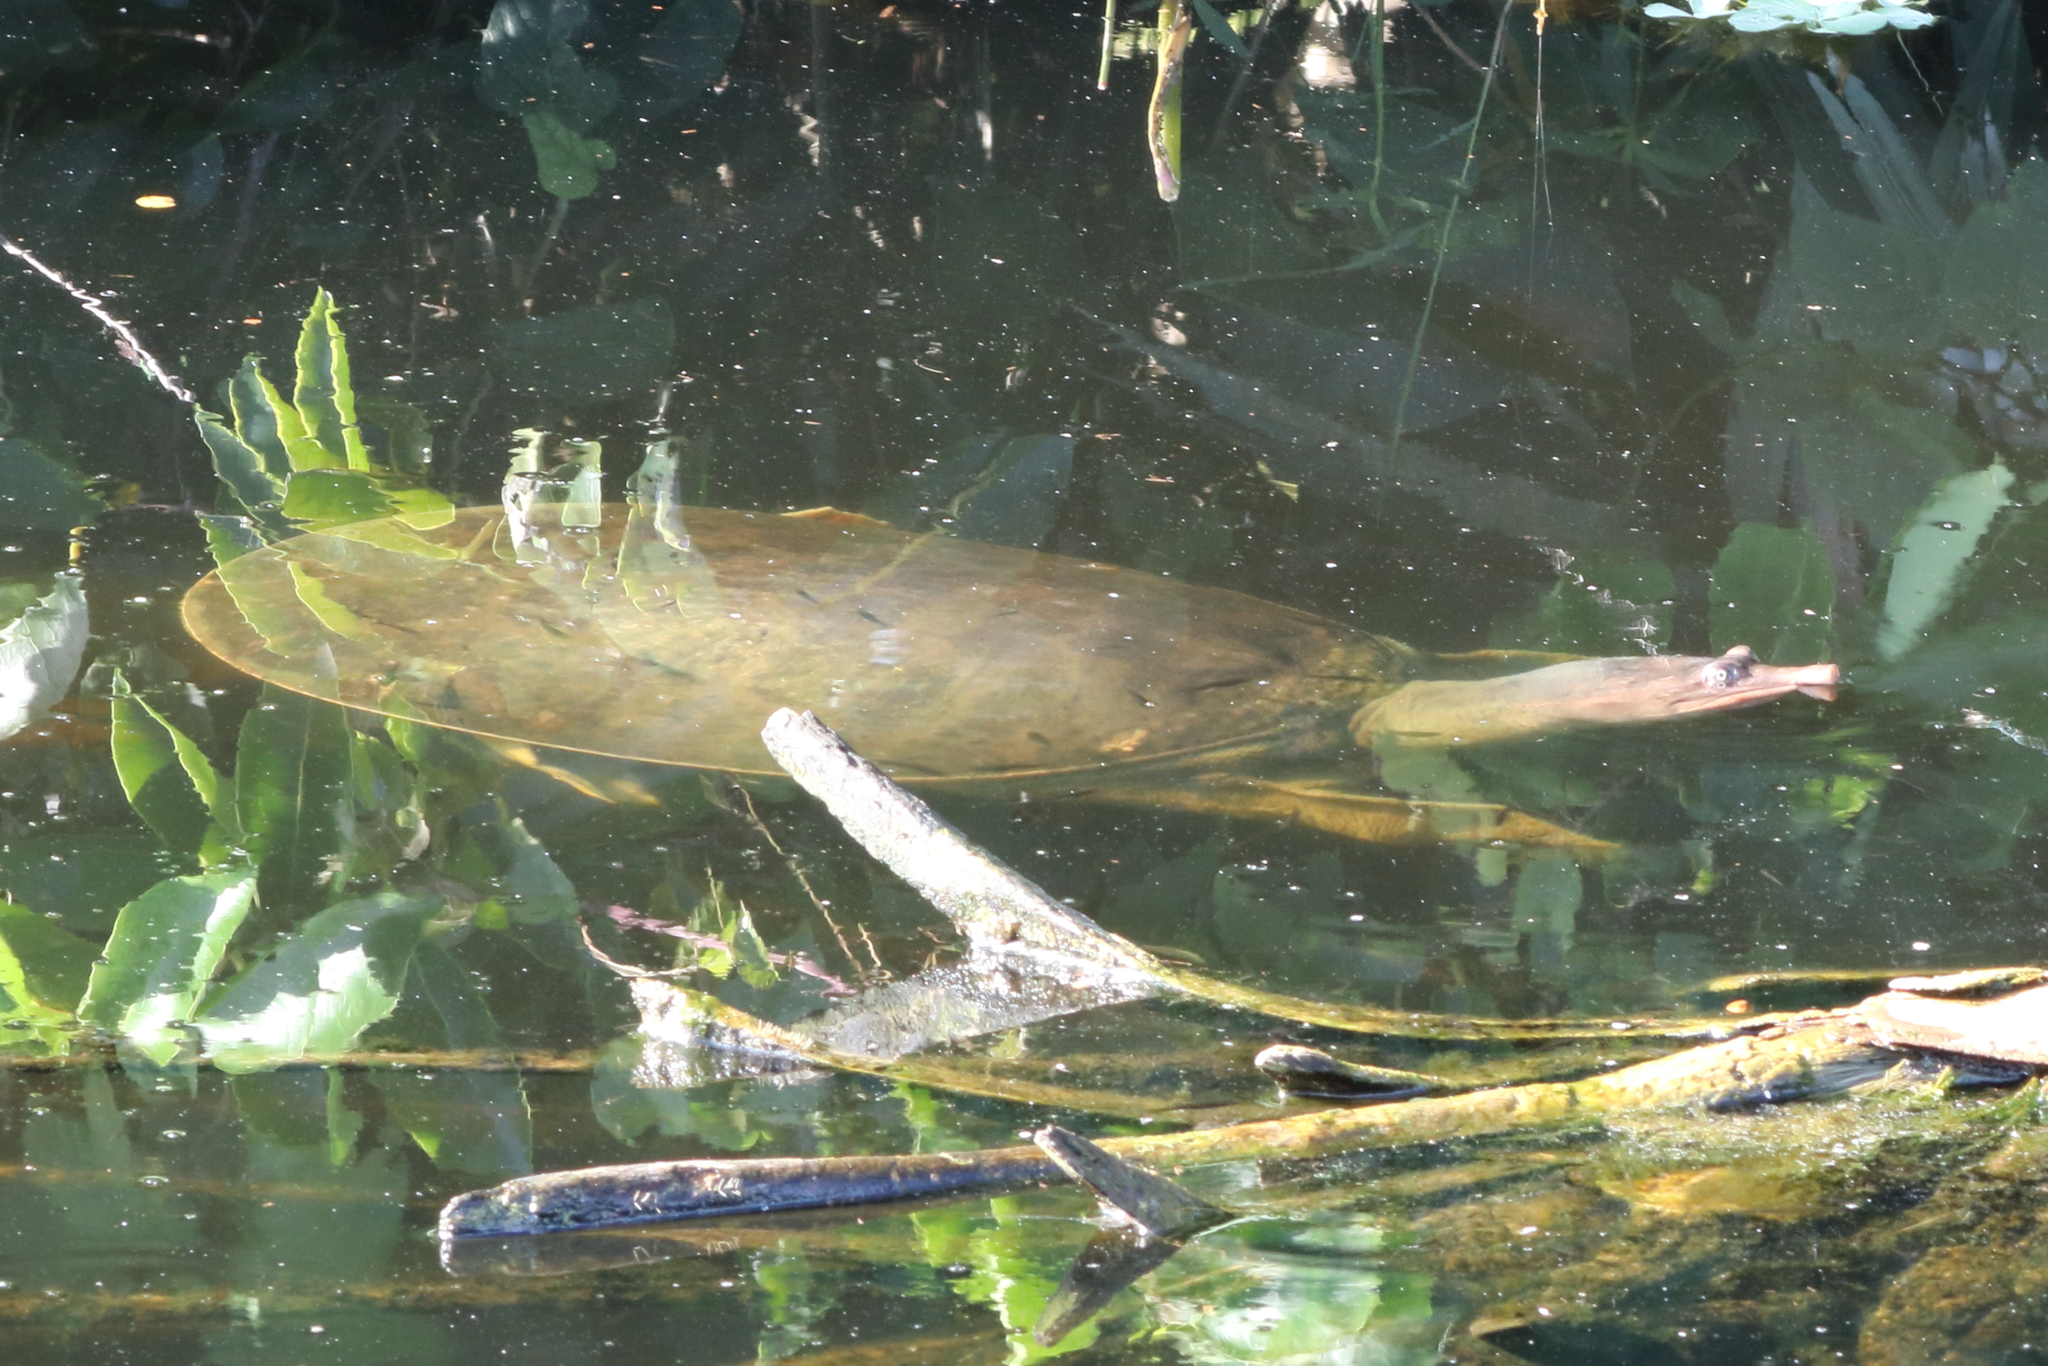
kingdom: Animalia
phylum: Chordata
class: Testudines
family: Trionychidae
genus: Apalone
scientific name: Apalone ferox
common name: Florida softshell turtle
